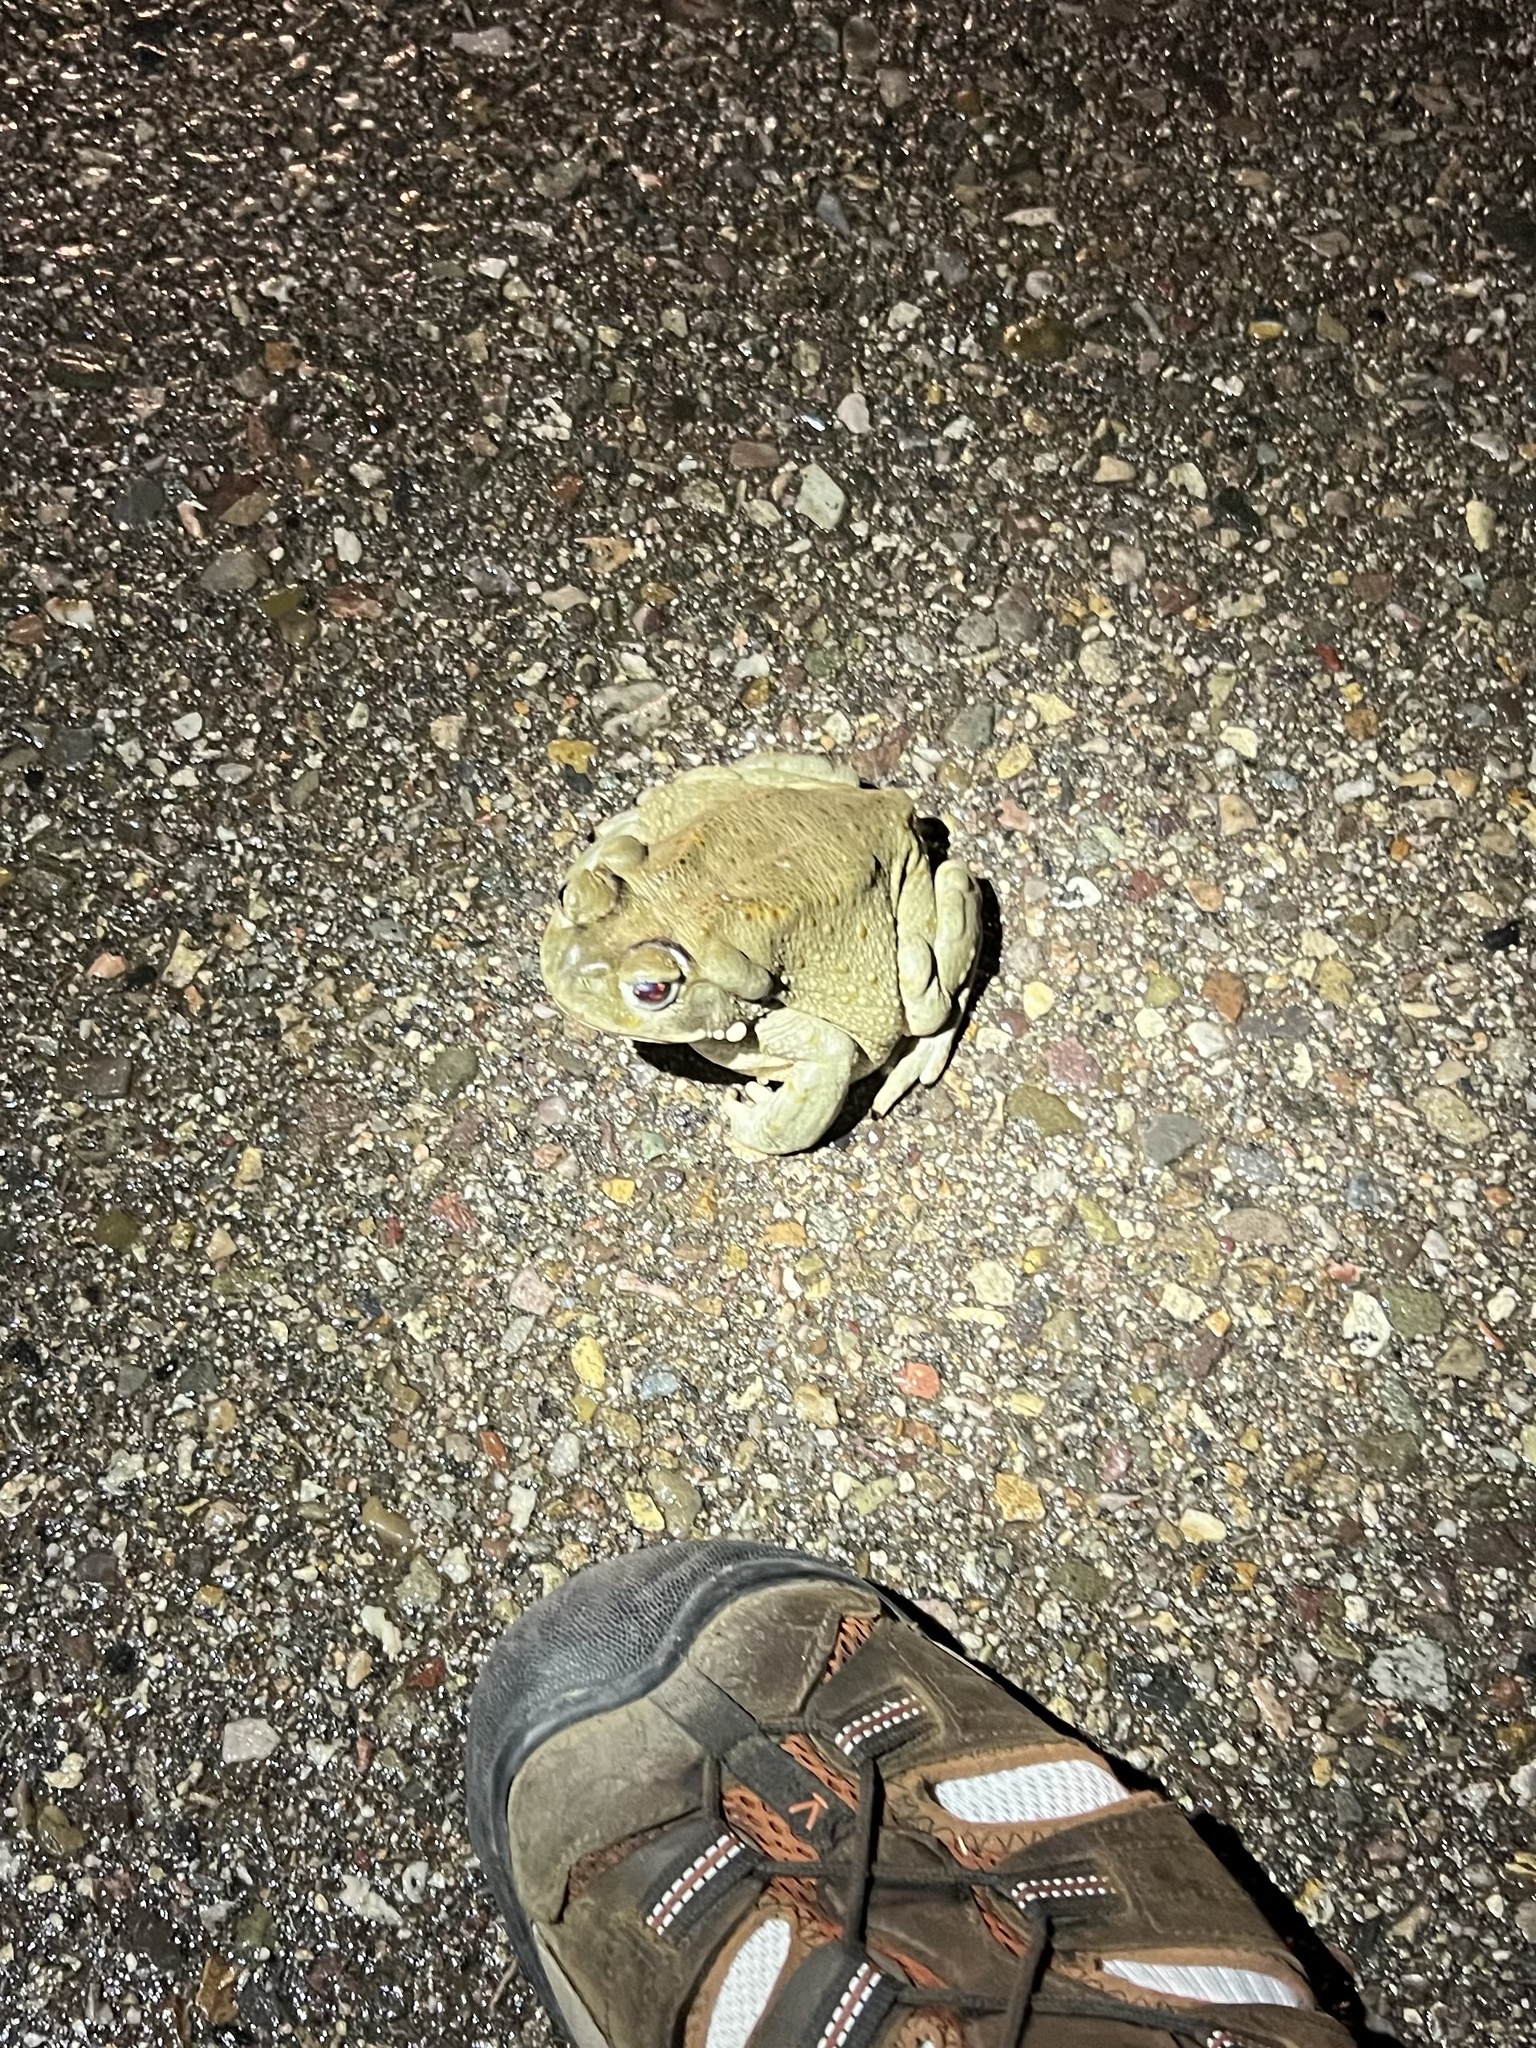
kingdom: Animalia
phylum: Chordata
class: Amphibia
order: Anura
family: Bufonidae
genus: Incilius
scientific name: Incilius alvarius
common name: Sonoran desert toad
